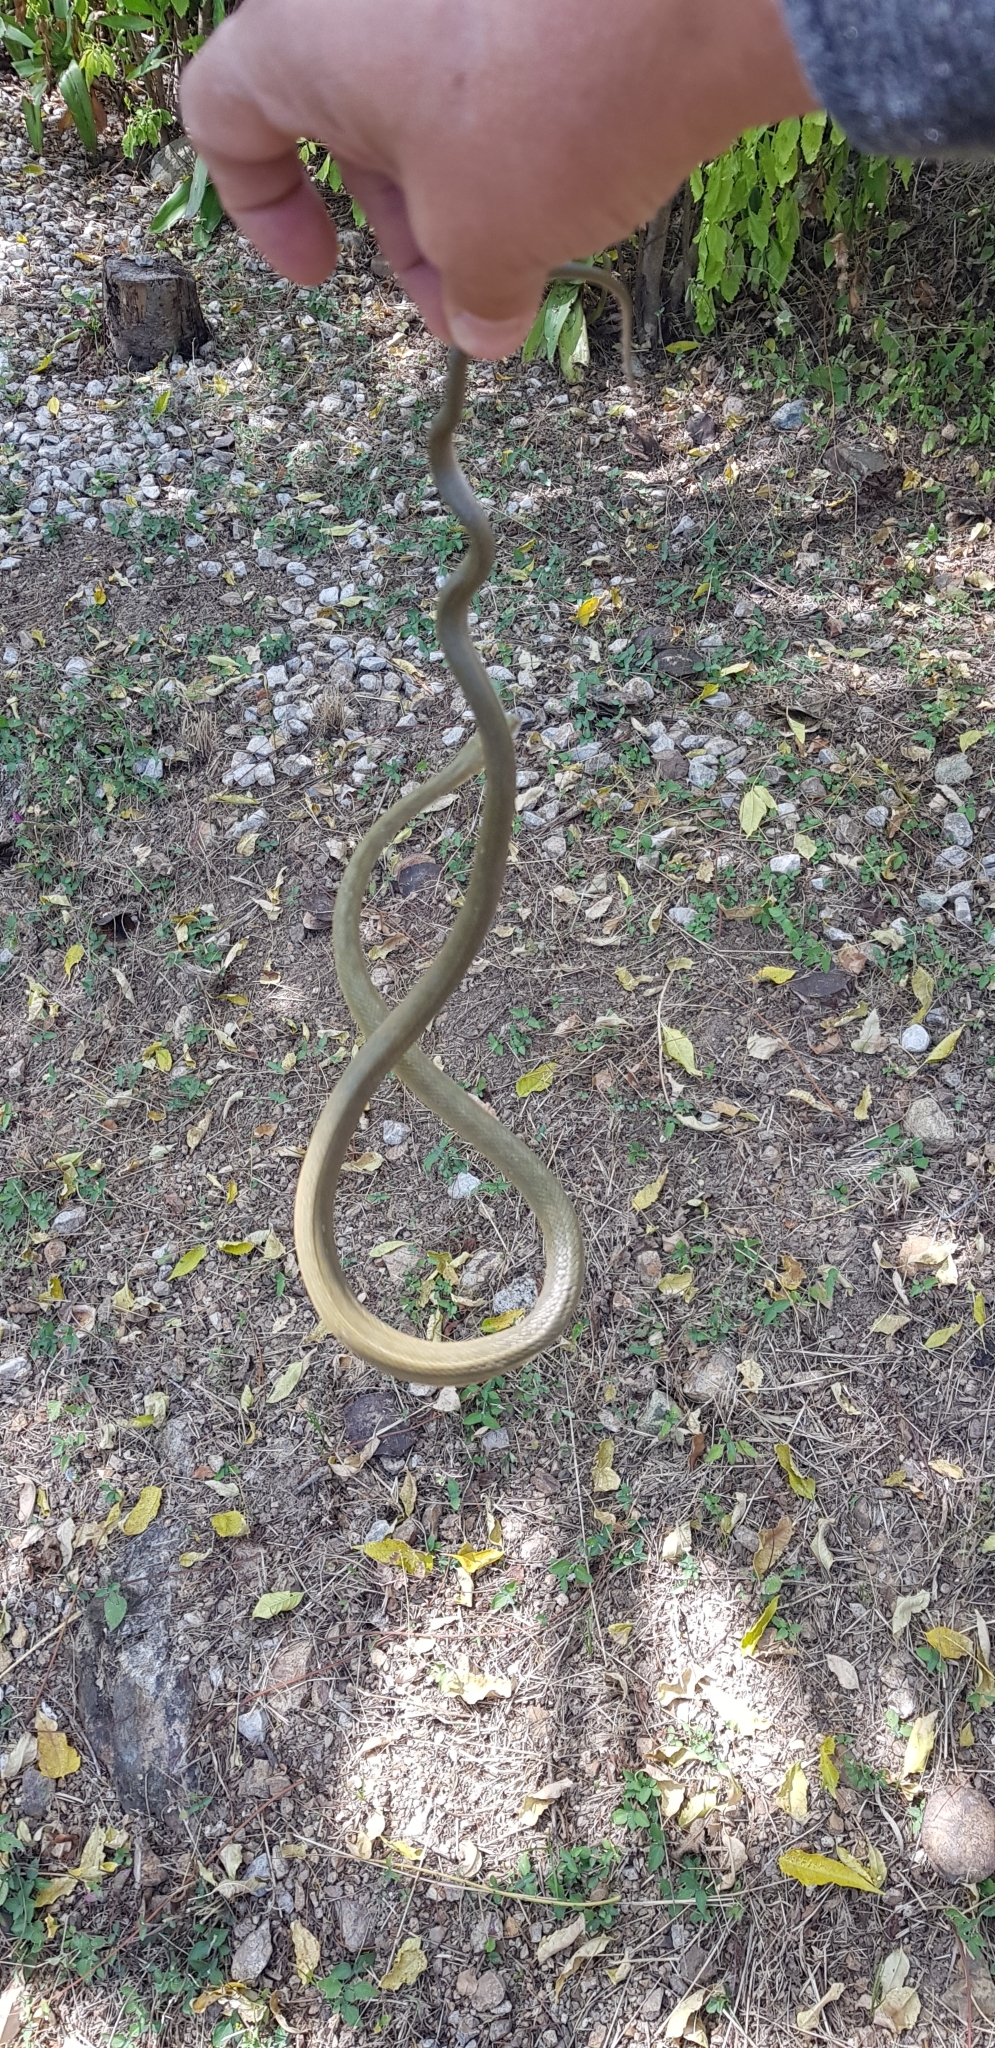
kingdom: Animalia
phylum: Chordata
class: Squamata
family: Colubridae
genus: Senticolis
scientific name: Senticolis triaspis
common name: Green rat snake
